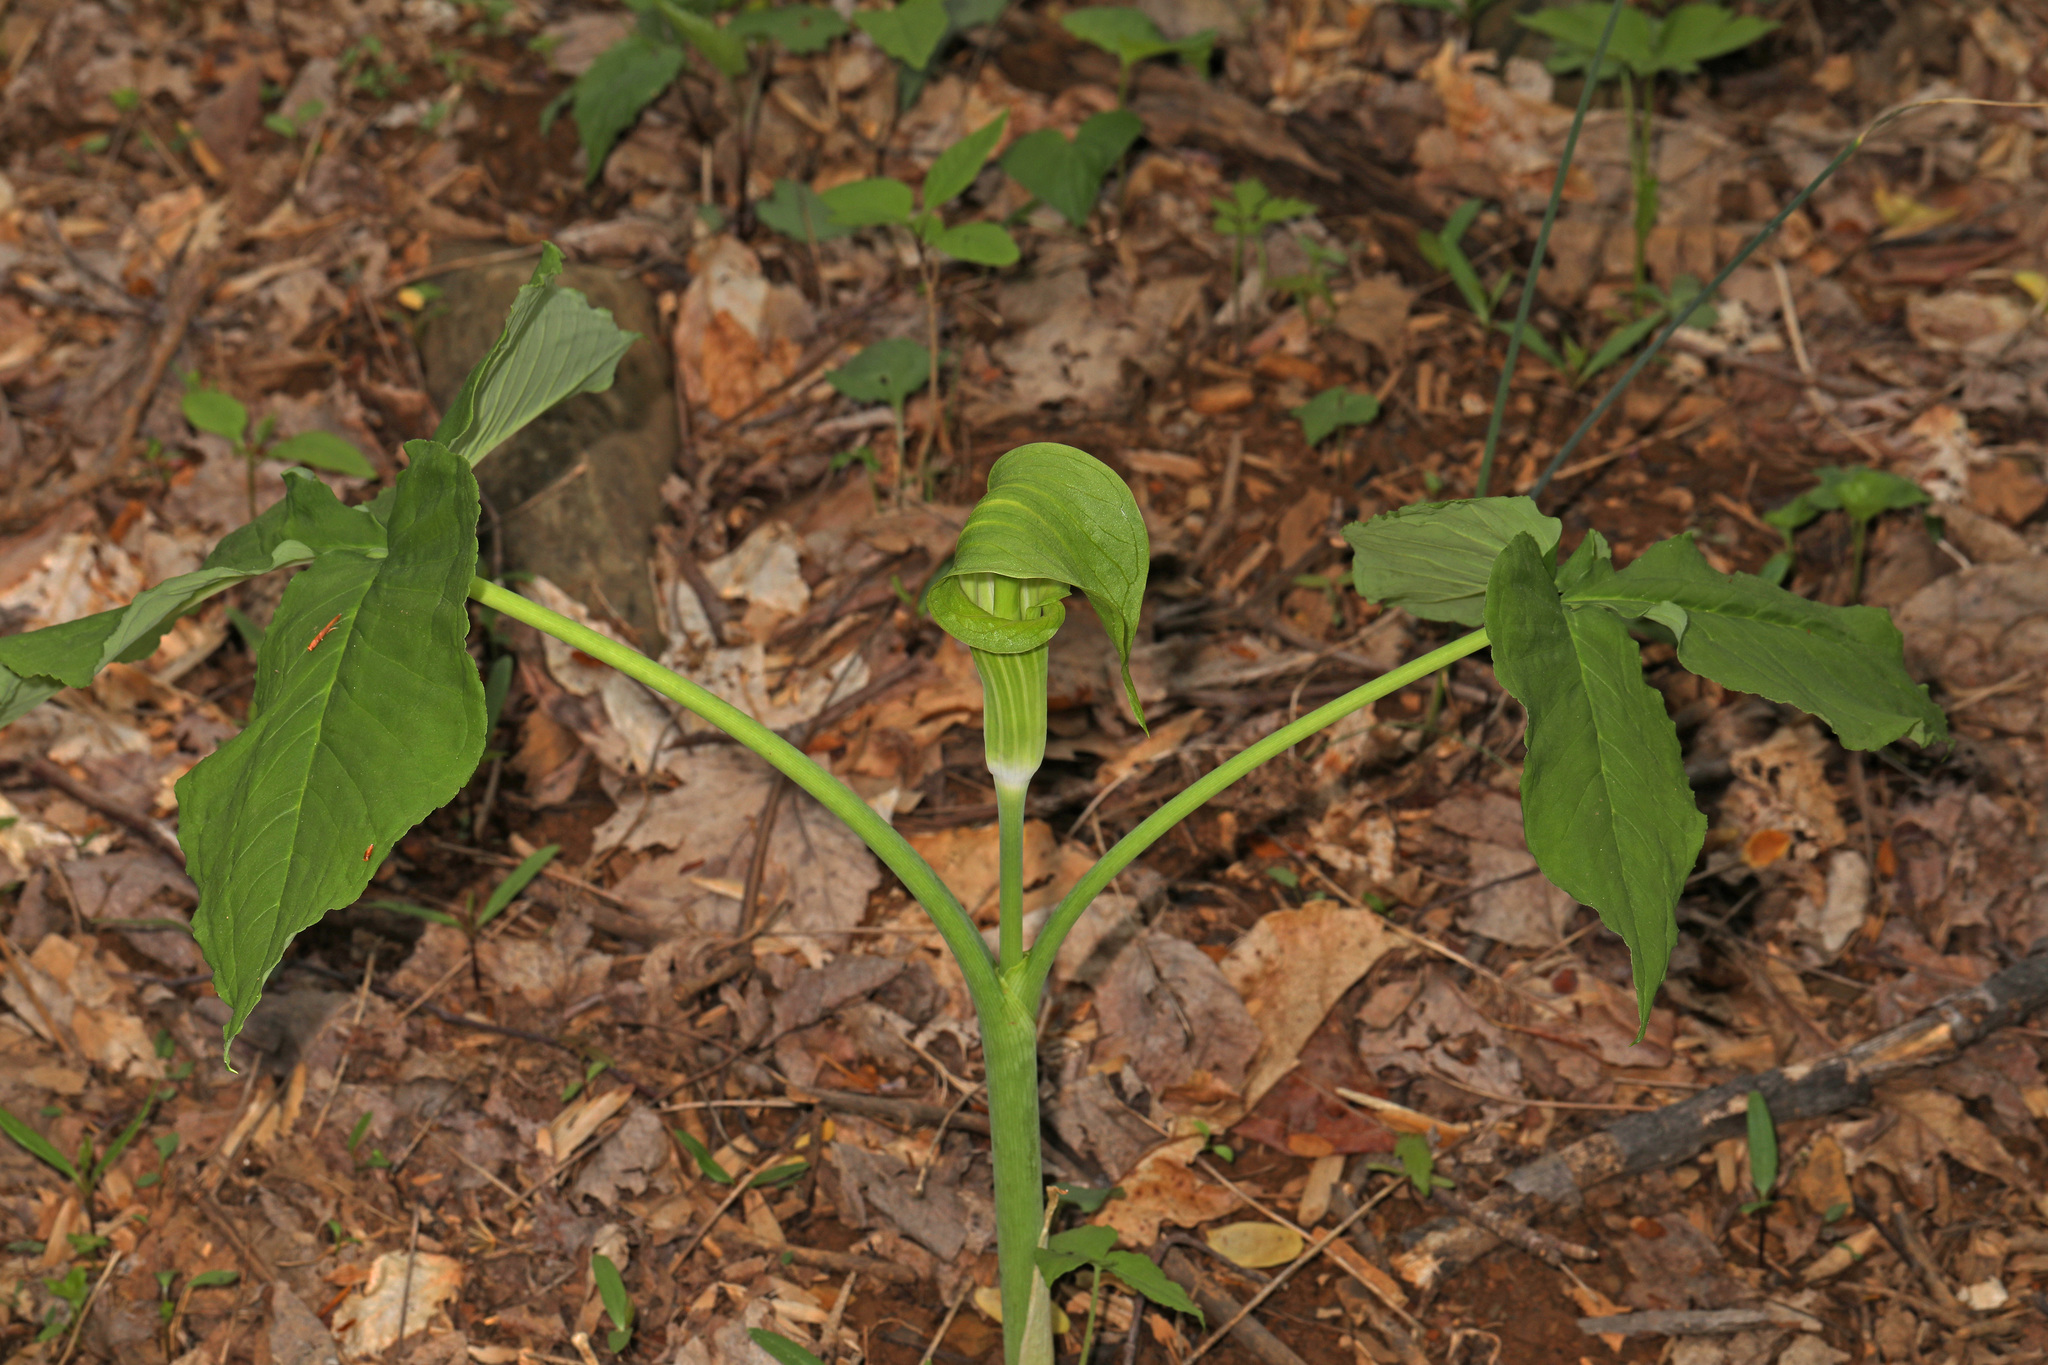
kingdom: Plantae
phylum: Tracheophyta
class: Liliopsida
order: Alismatales
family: Araceae
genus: Arisaema
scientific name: Arisaema triphyllum
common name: Jack-in-the-pulpit
